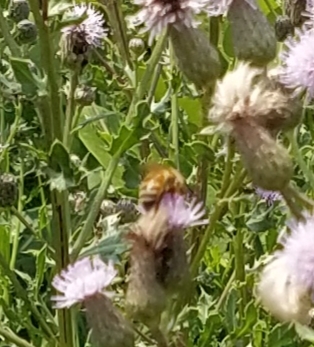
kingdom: Animalia
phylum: Arthropoda
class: Insecta
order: Hymenoptera
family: Apidae
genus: Apis
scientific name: Apis mellifera
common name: Honey bee
